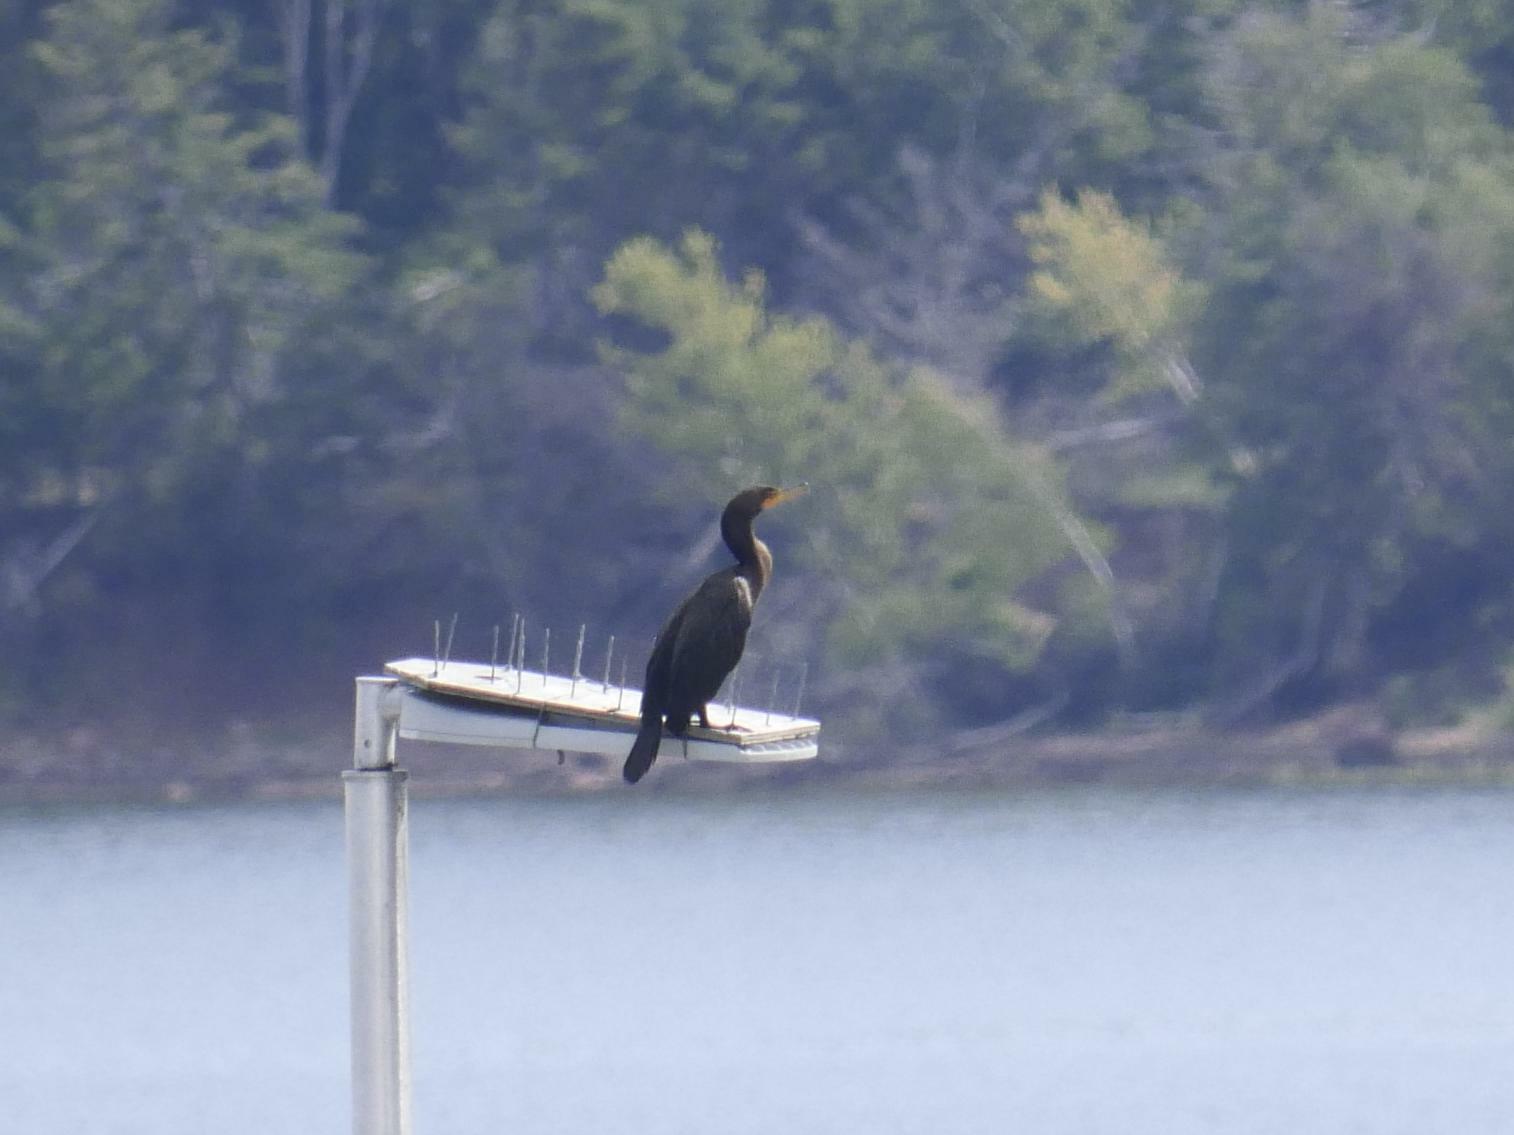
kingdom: Animalia
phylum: Chordata
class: Aves
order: Suliformes
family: Phalacrocoracidae
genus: Phalacrocorax
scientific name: Phalacrocorax auritus
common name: Double-crested cormorant
